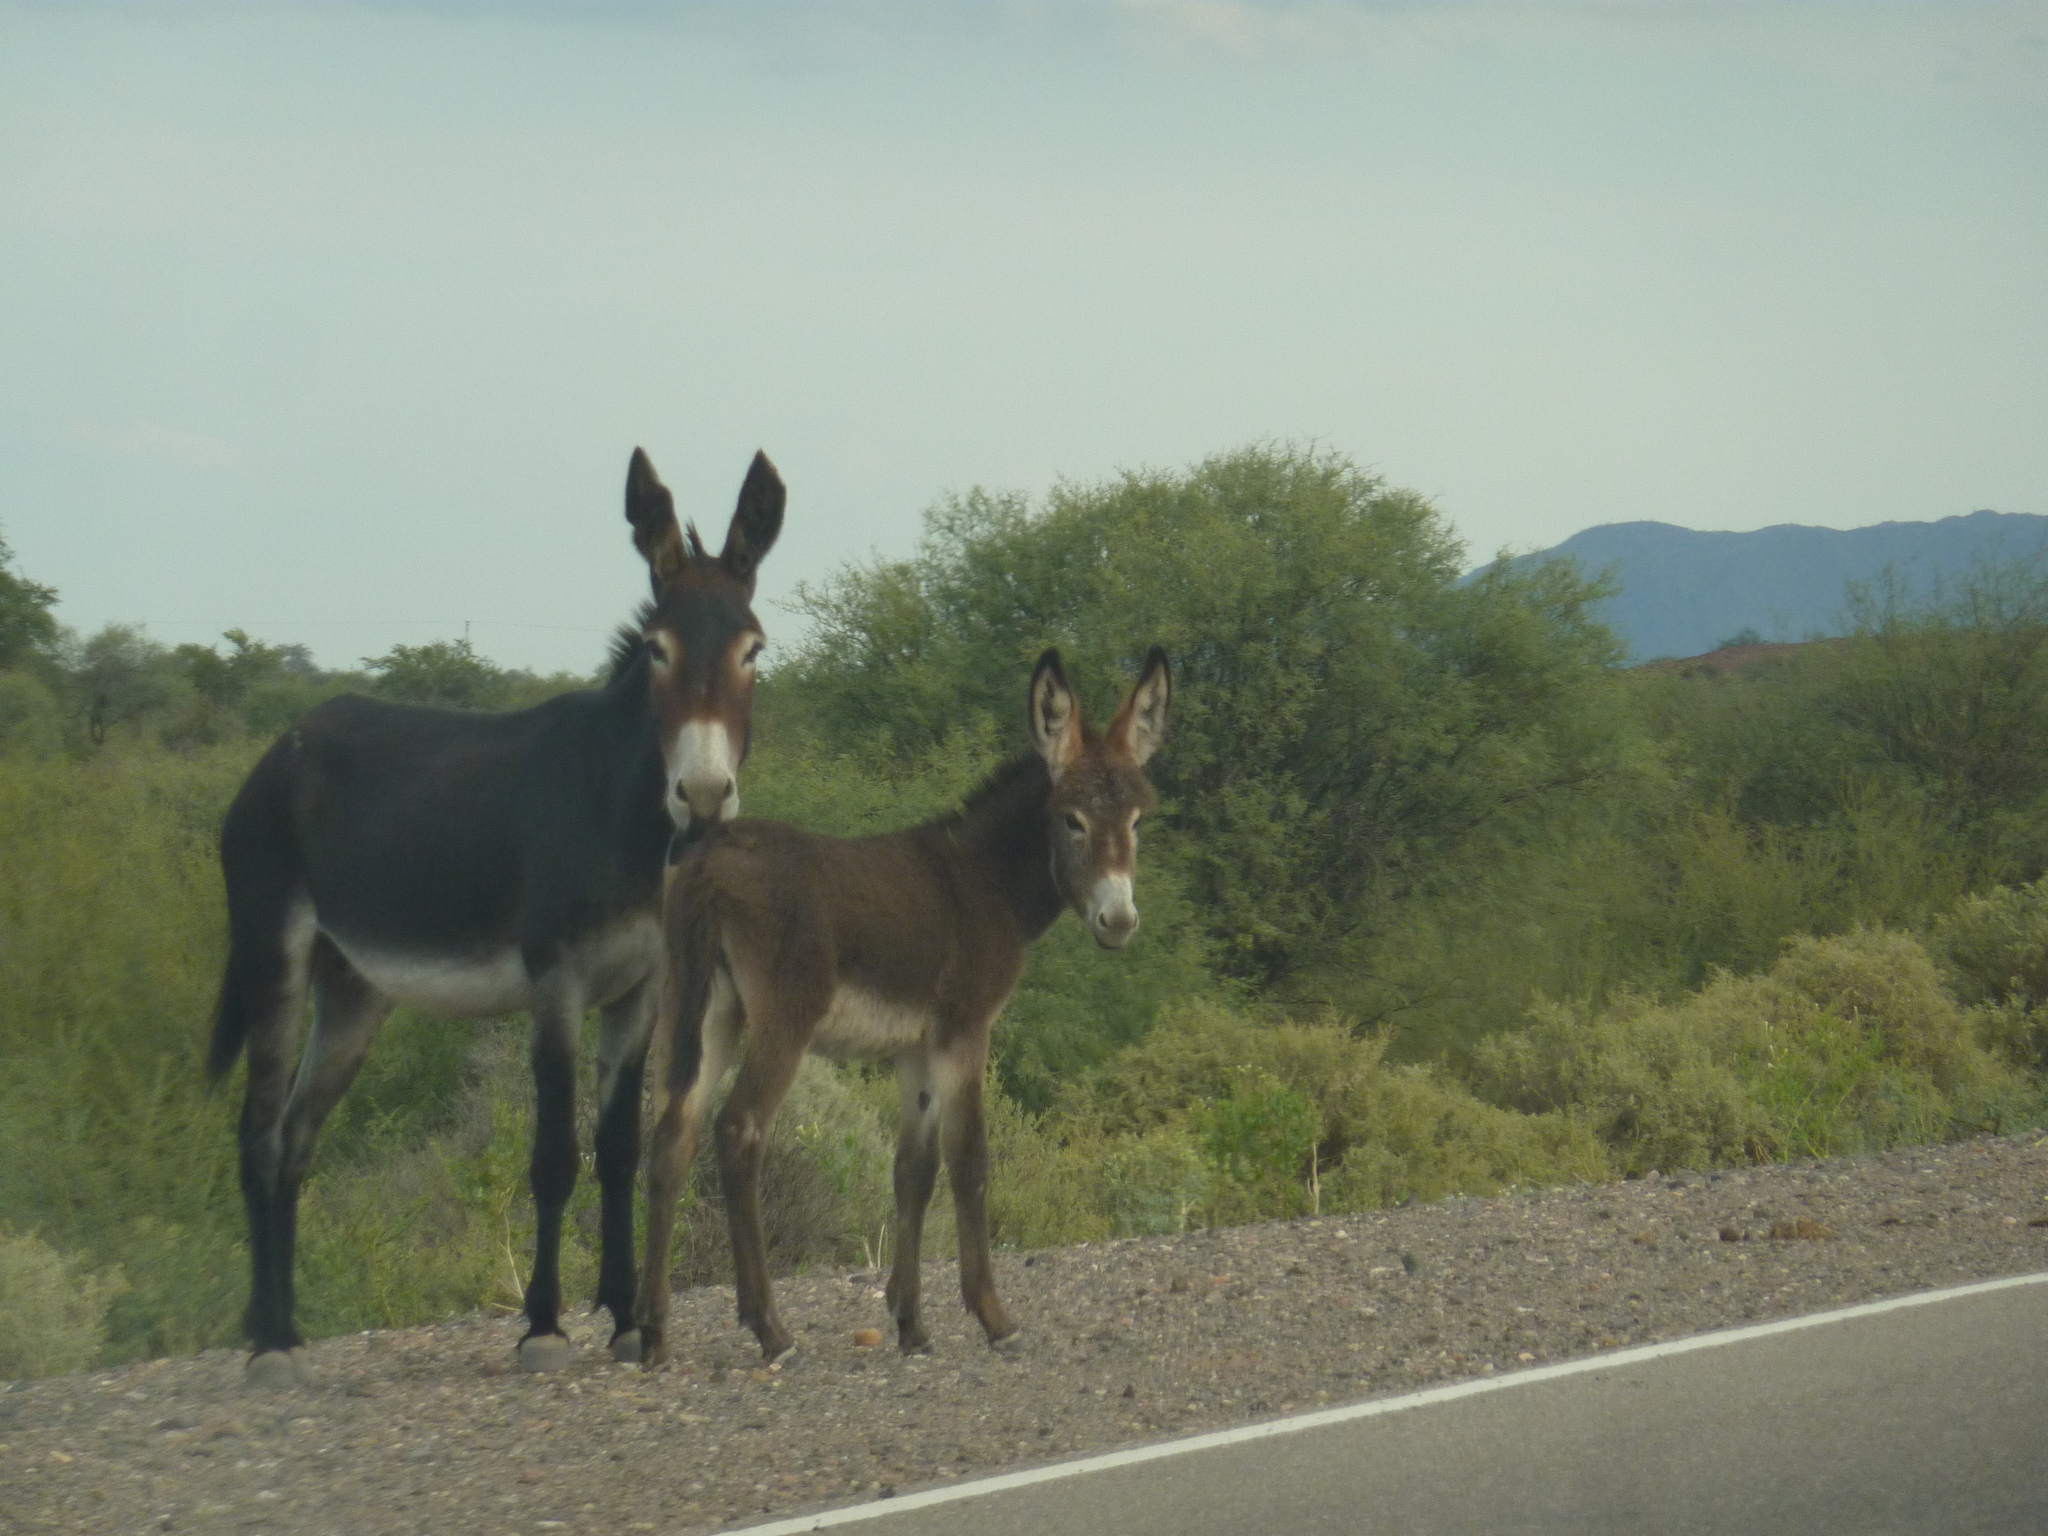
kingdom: Animalia
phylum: Chordata
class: Mammalia
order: Perissodactyla
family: Equidae
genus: Equus
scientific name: Equus asinus
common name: Ass
